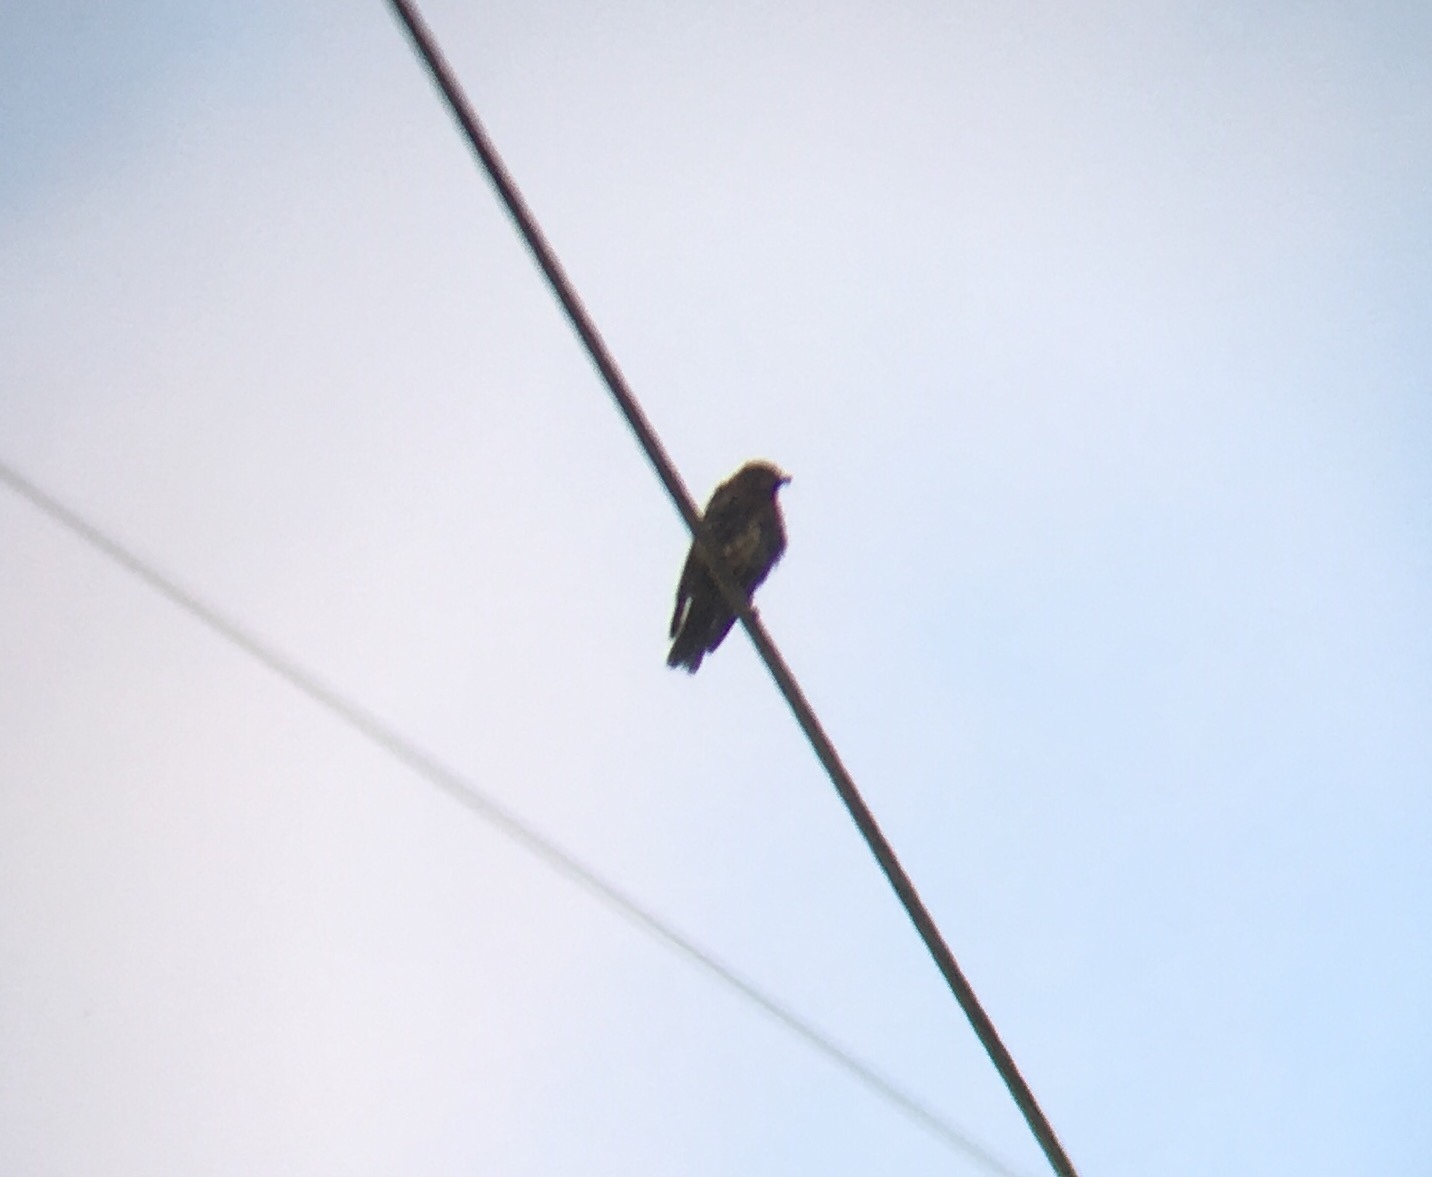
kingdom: Animalia
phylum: Chordata
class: Aves
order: Passeriformes
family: Turdidae
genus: Sialia
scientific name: Sialia sialis
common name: Eastern bluebird
